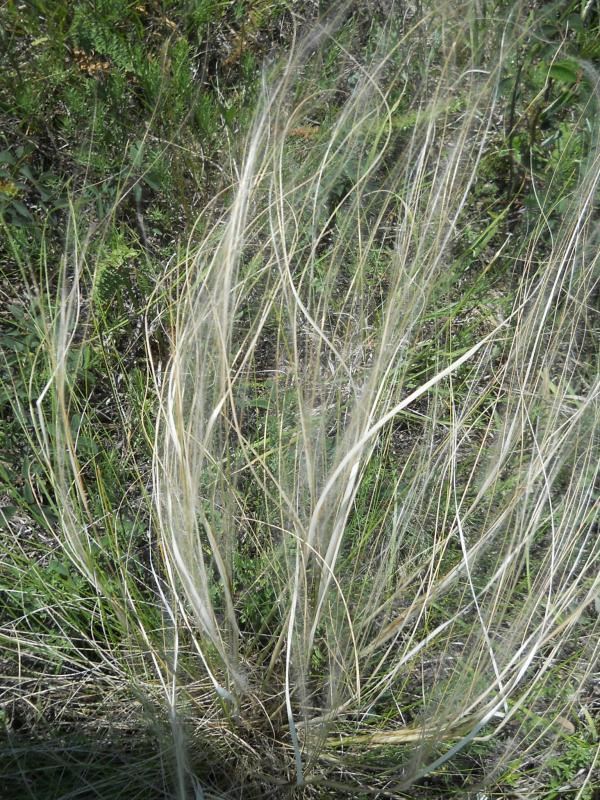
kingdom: Plantae
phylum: Tracheophyta
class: Liliopsida
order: Poales
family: Poaceae
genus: Stipa
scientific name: Stipa pennata
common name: European feather grass
